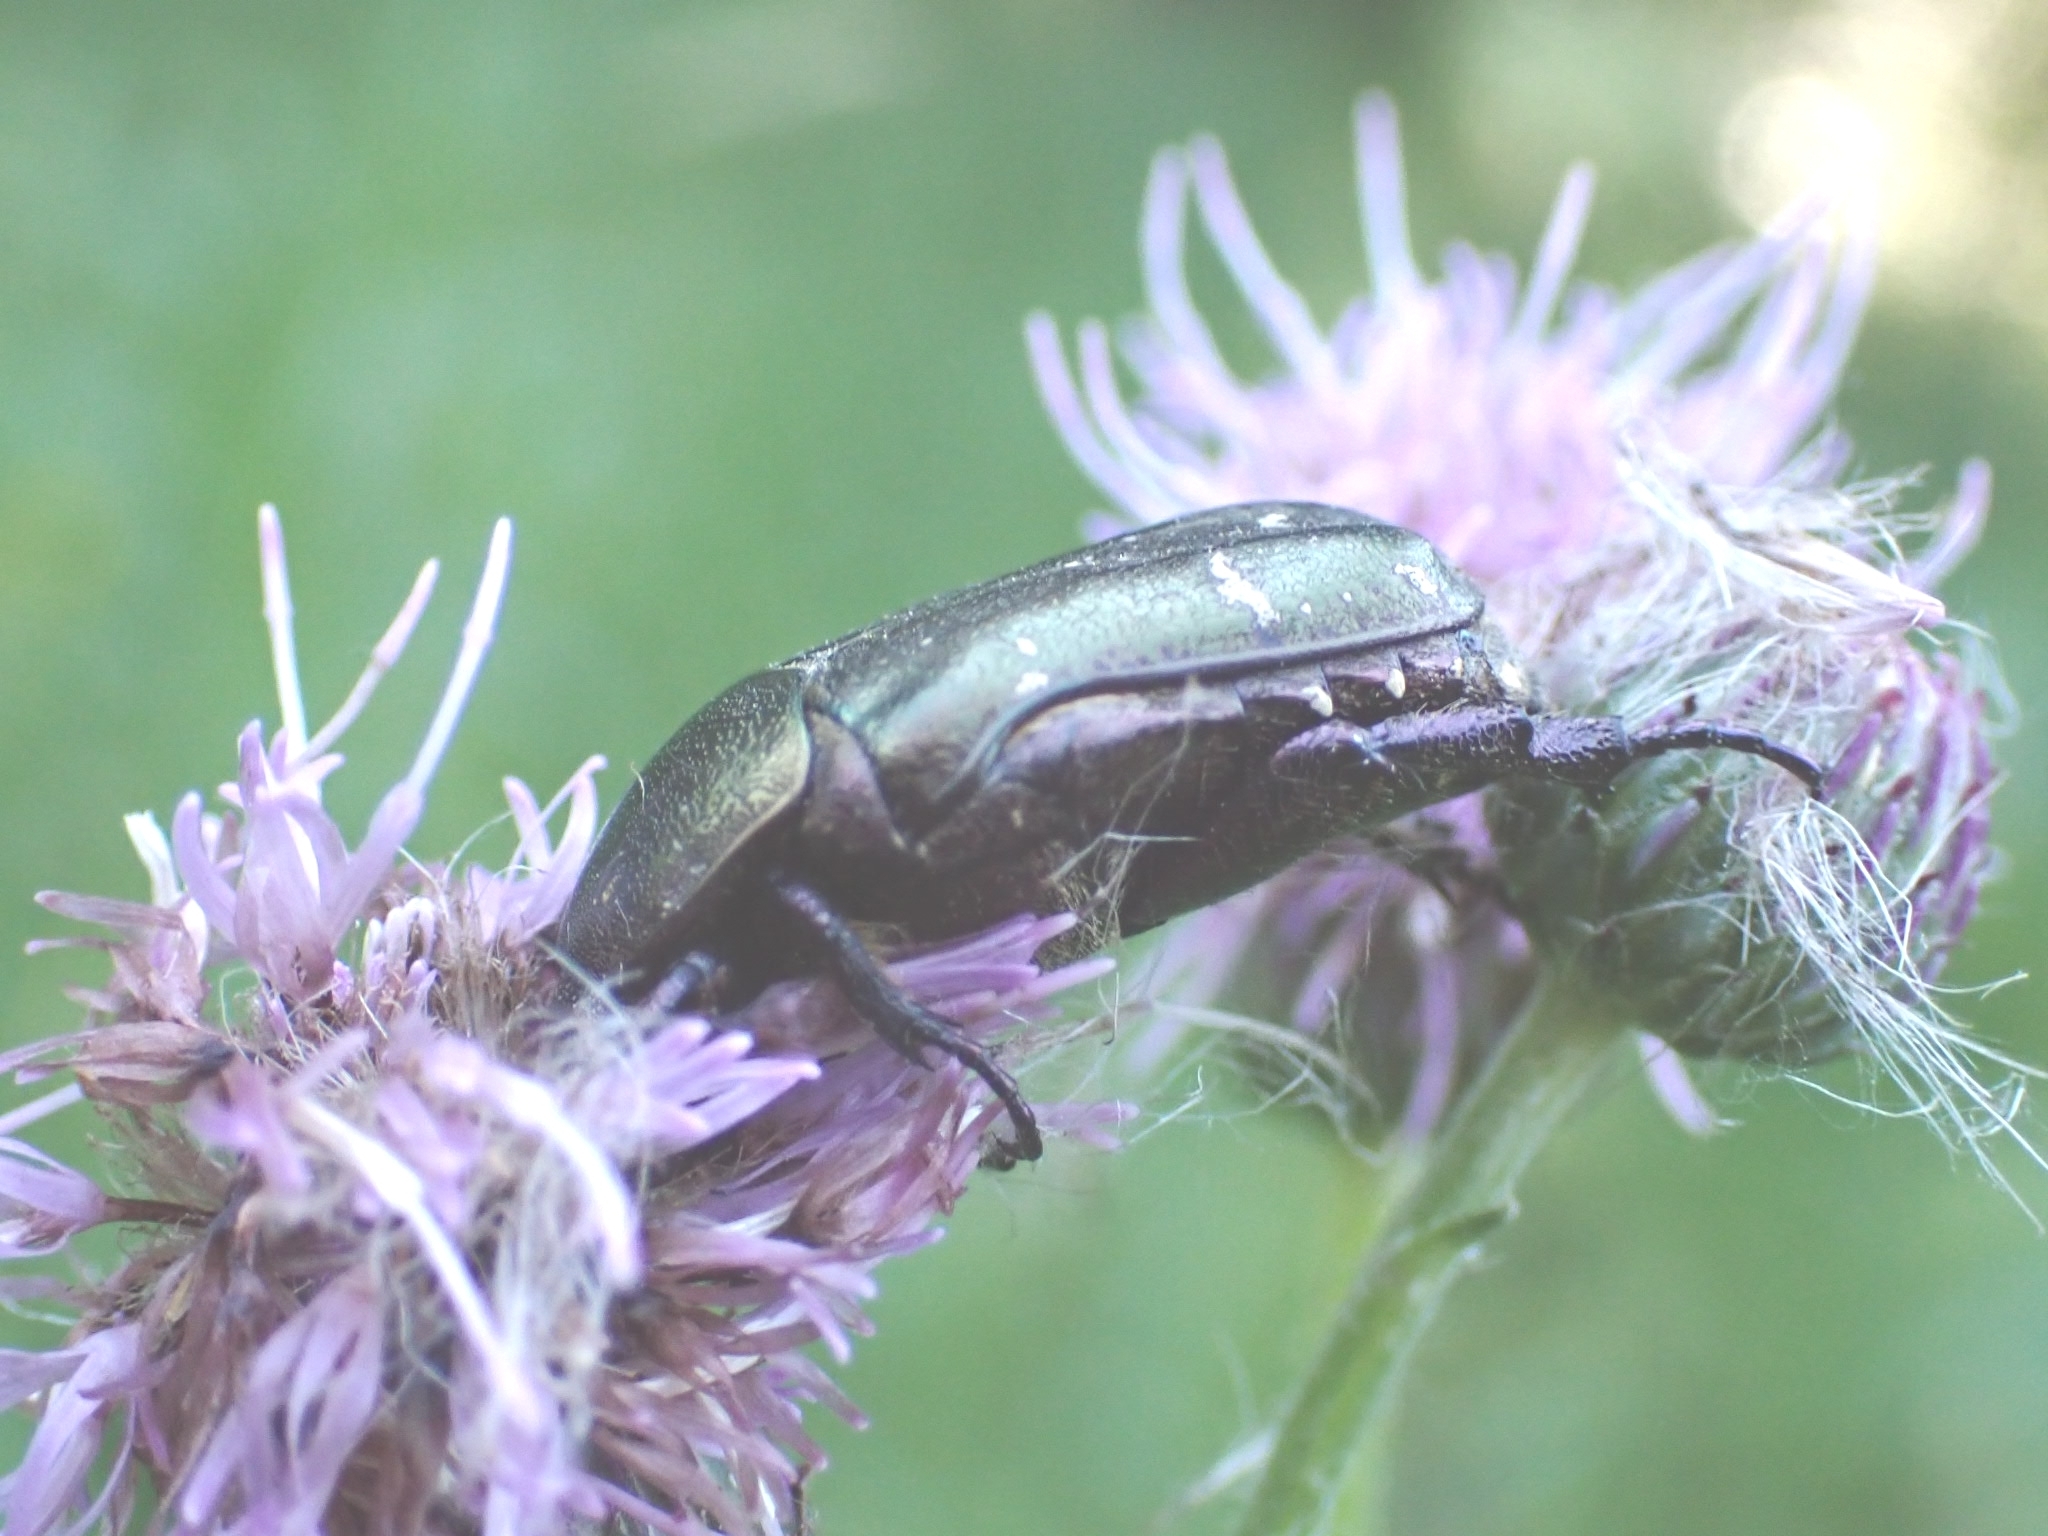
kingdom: Animalia
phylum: Arthropoda
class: Insecta
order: Coleoptera
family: Scarabaeidae
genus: Protaetia
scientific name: Protaetia cuprea
